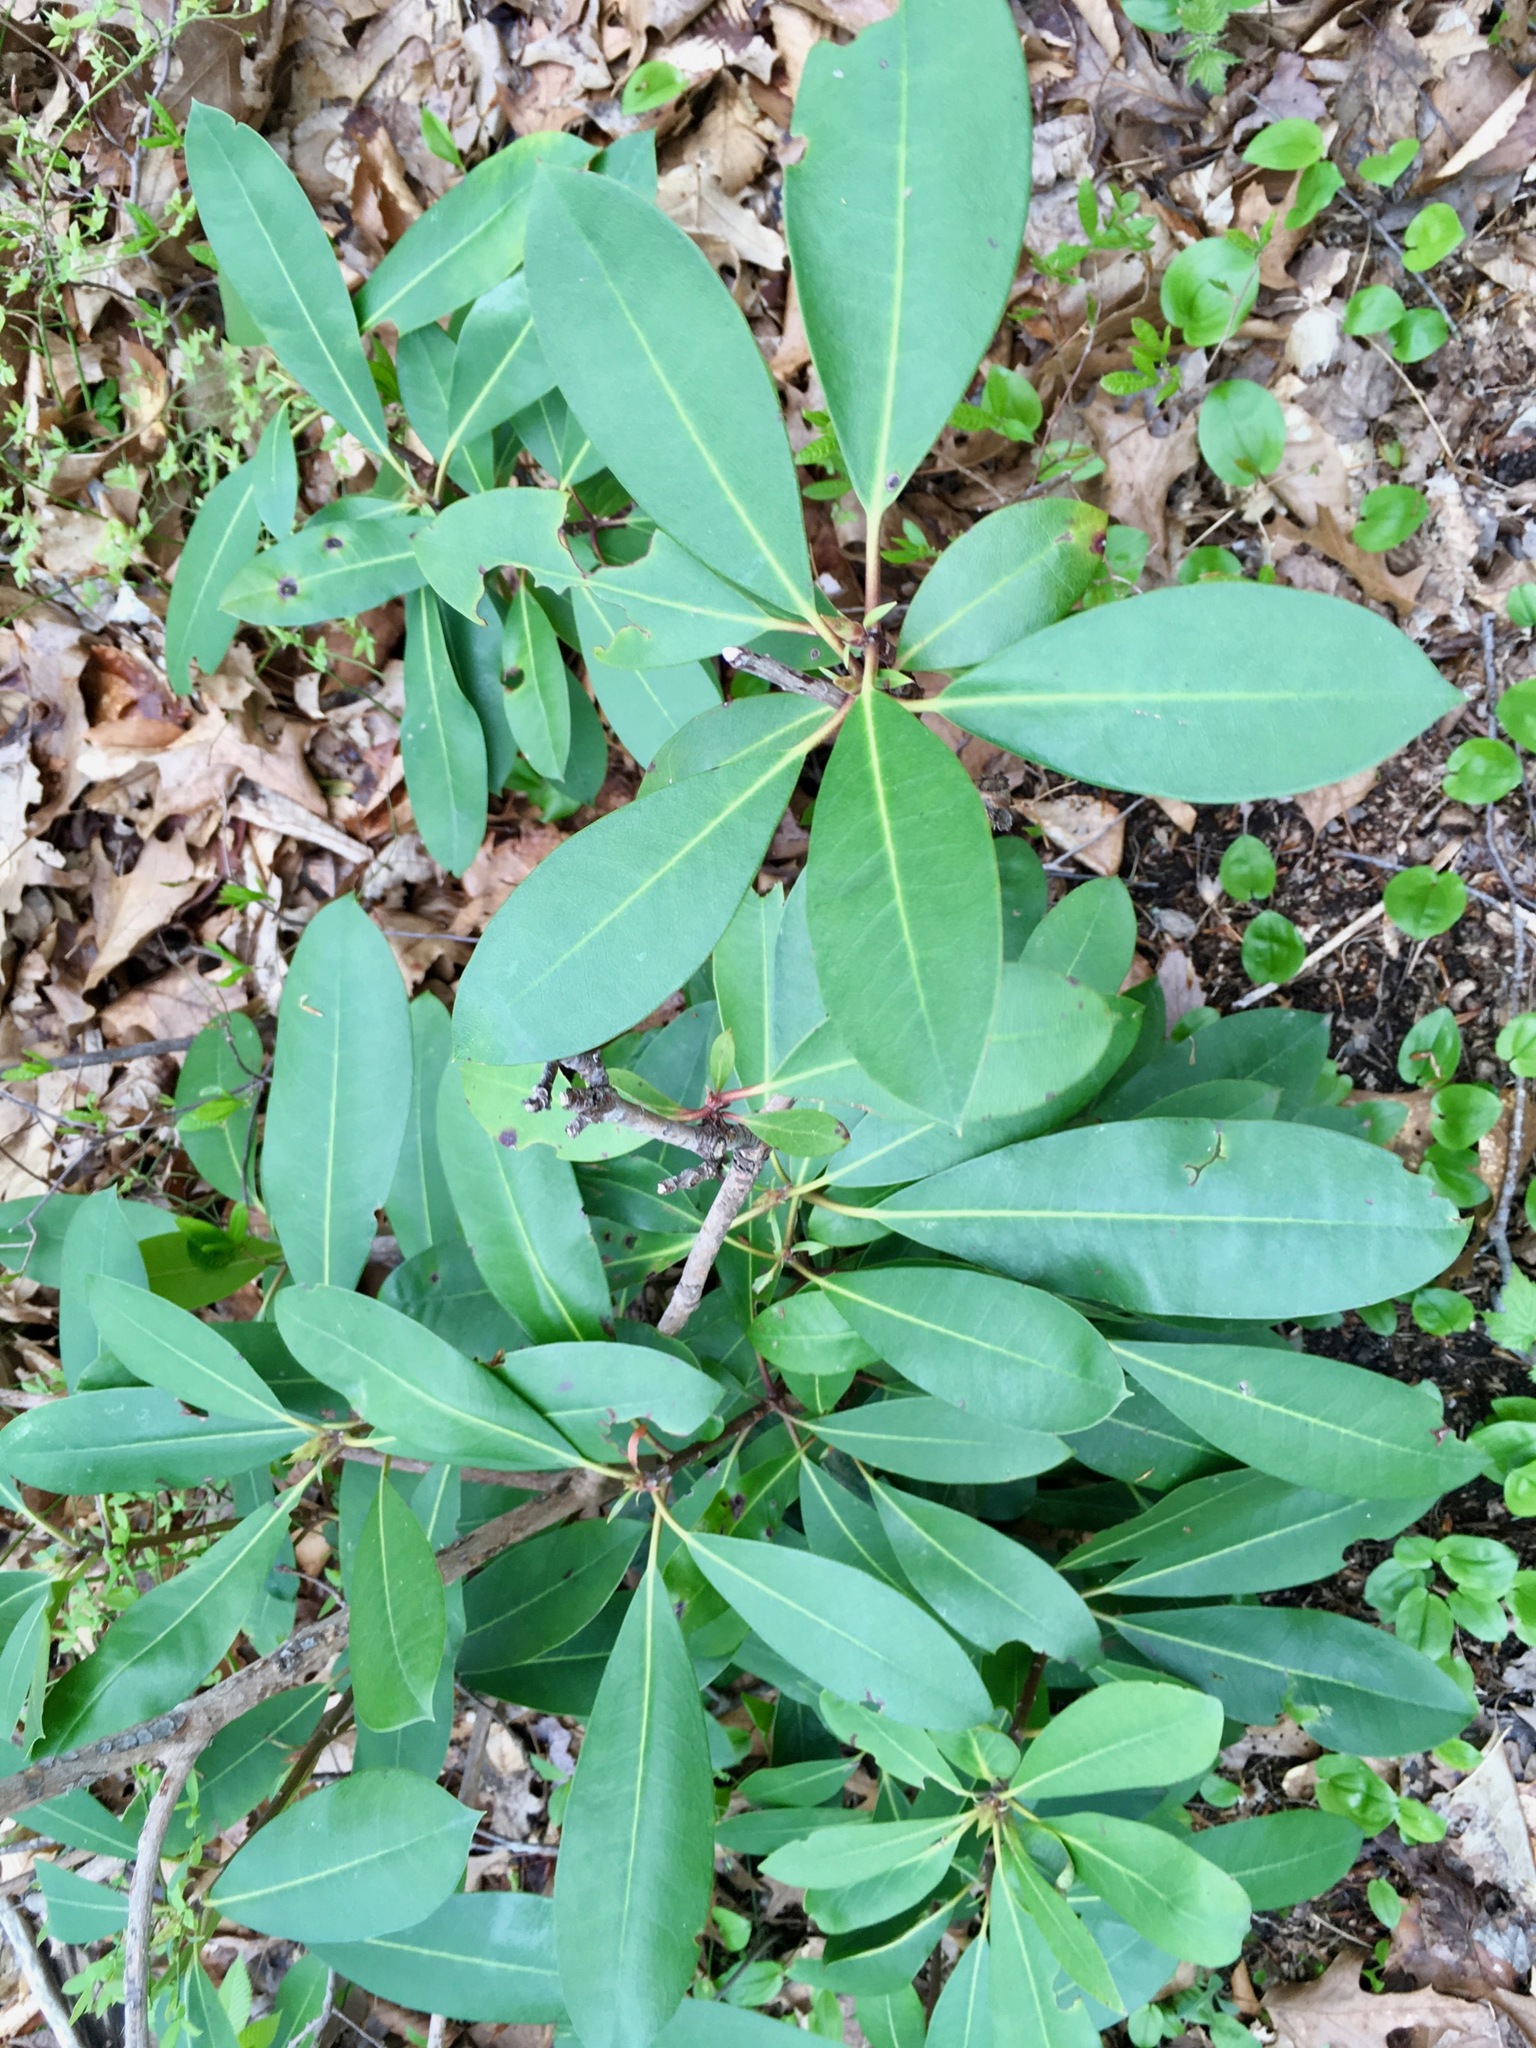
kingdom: Plantae
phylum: Tracheophyta
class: Magnoliopsida
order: Ericales
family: Ericaceae
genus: Rhododendron
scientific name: Rhododendron maximum
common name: Great rhododendron
